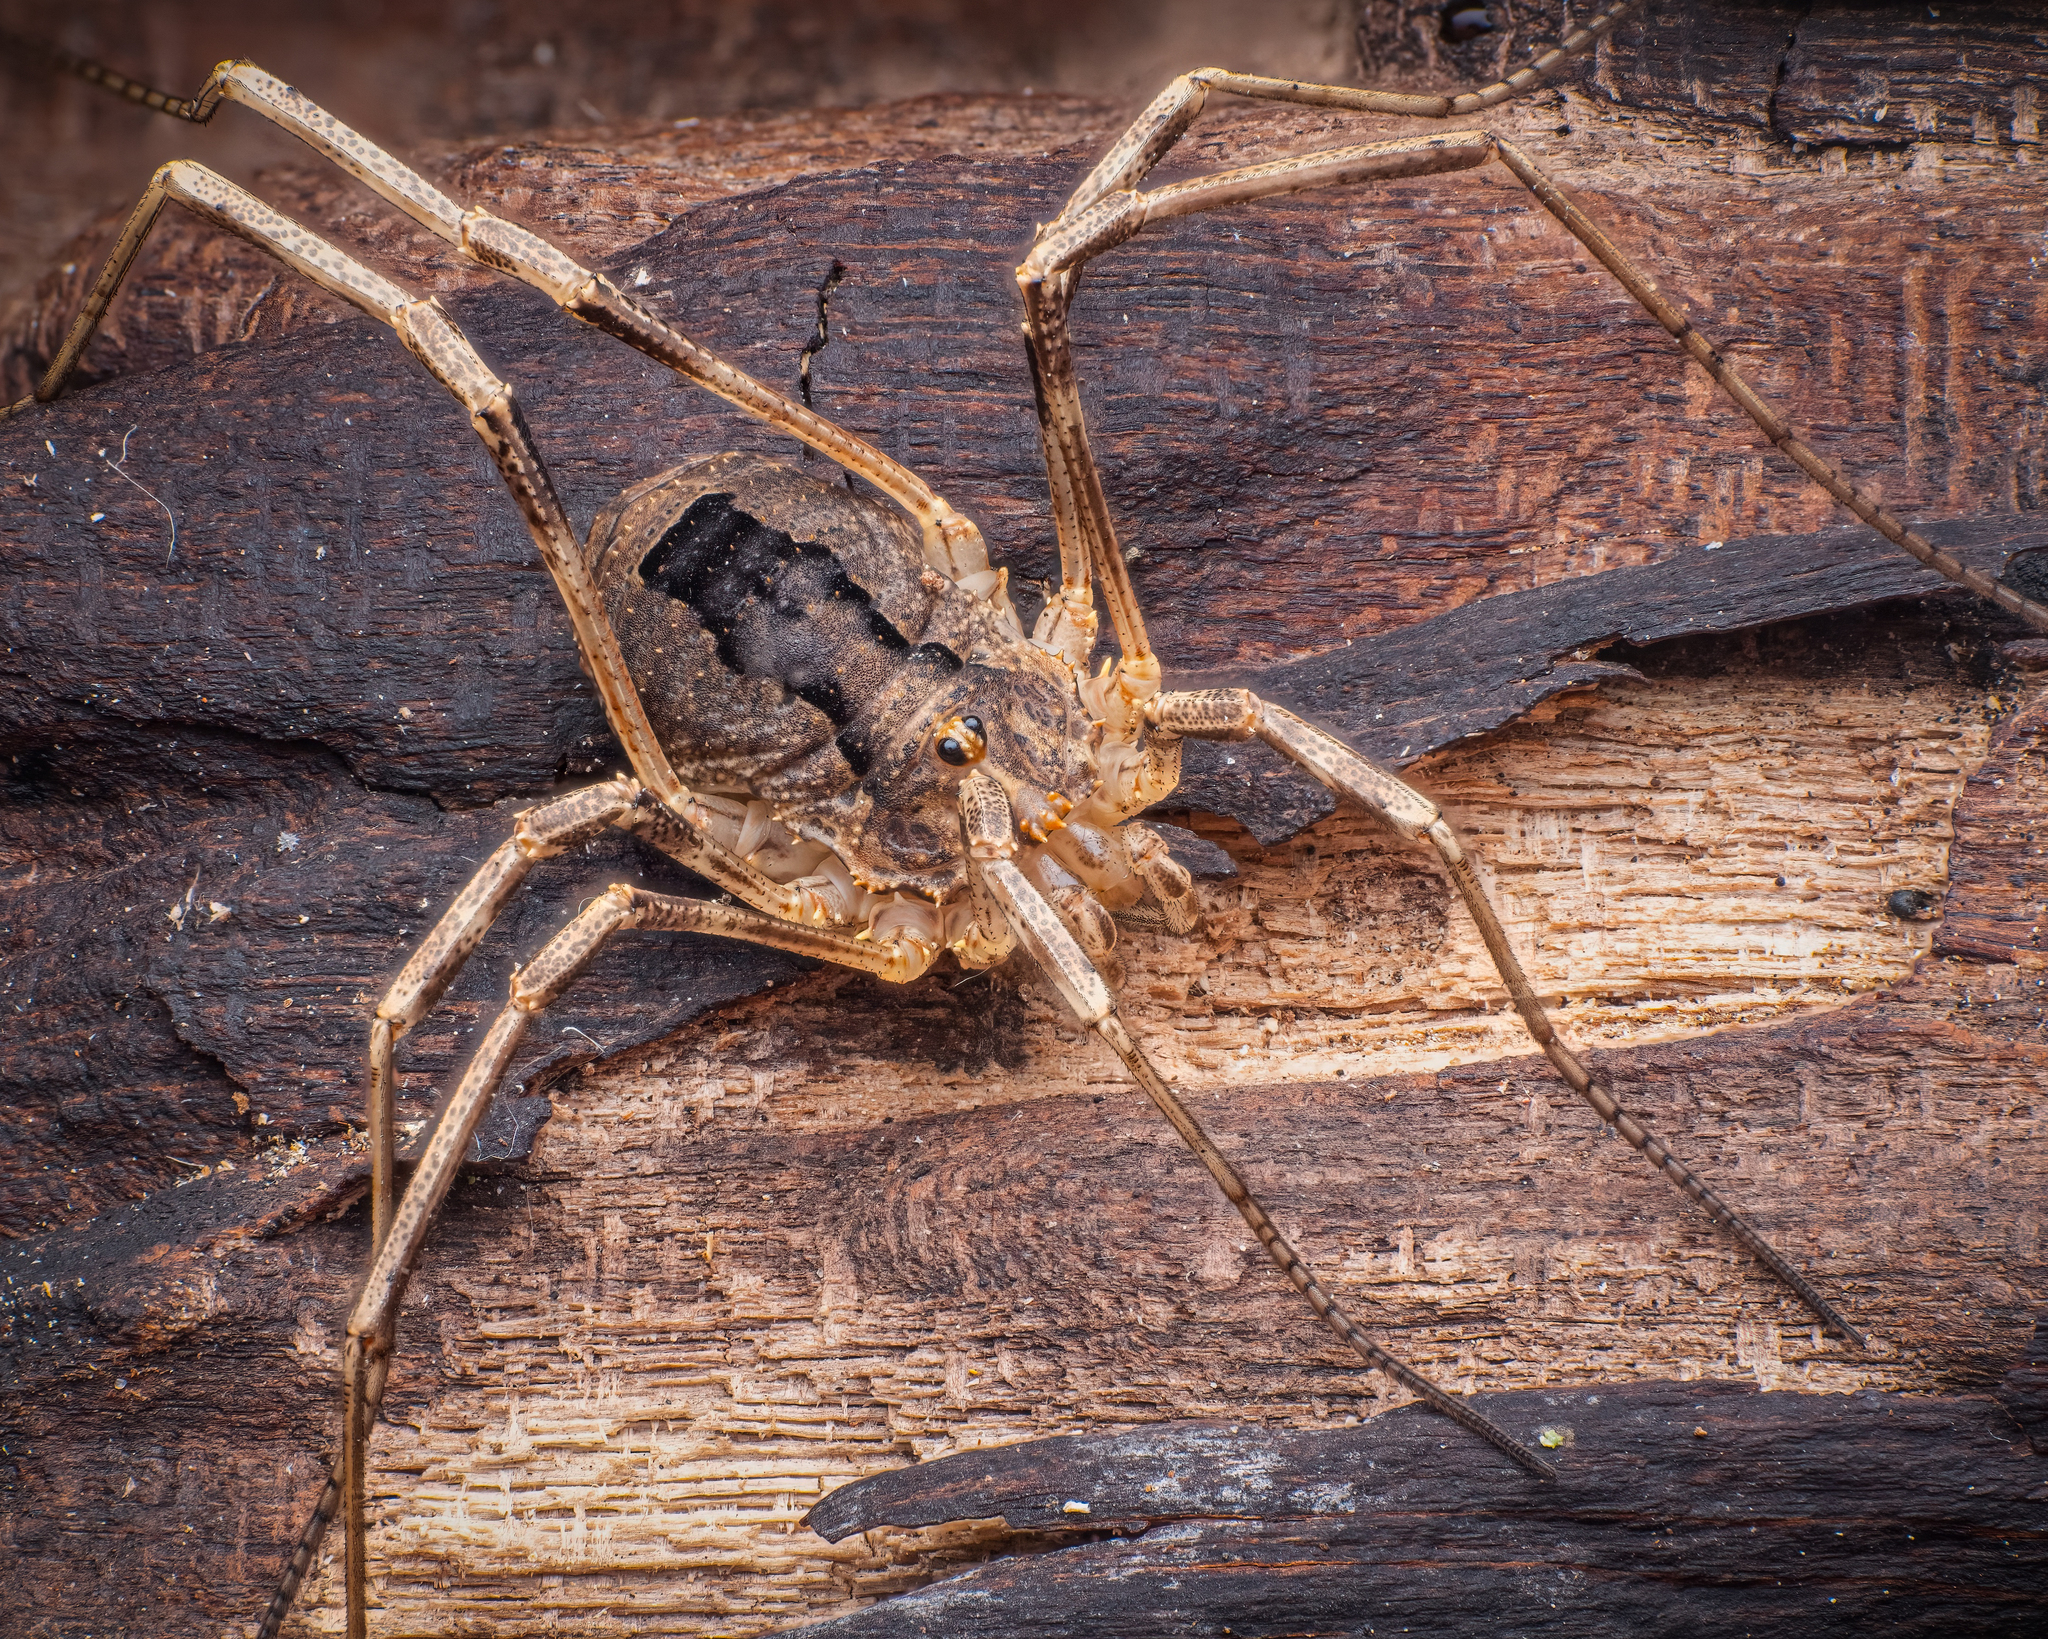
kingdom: Animalia
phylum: Arthropoda
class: Arachnida
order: Opiliones
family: Phalangiidae
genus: Odiellus
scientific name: Odiellus spinosus
